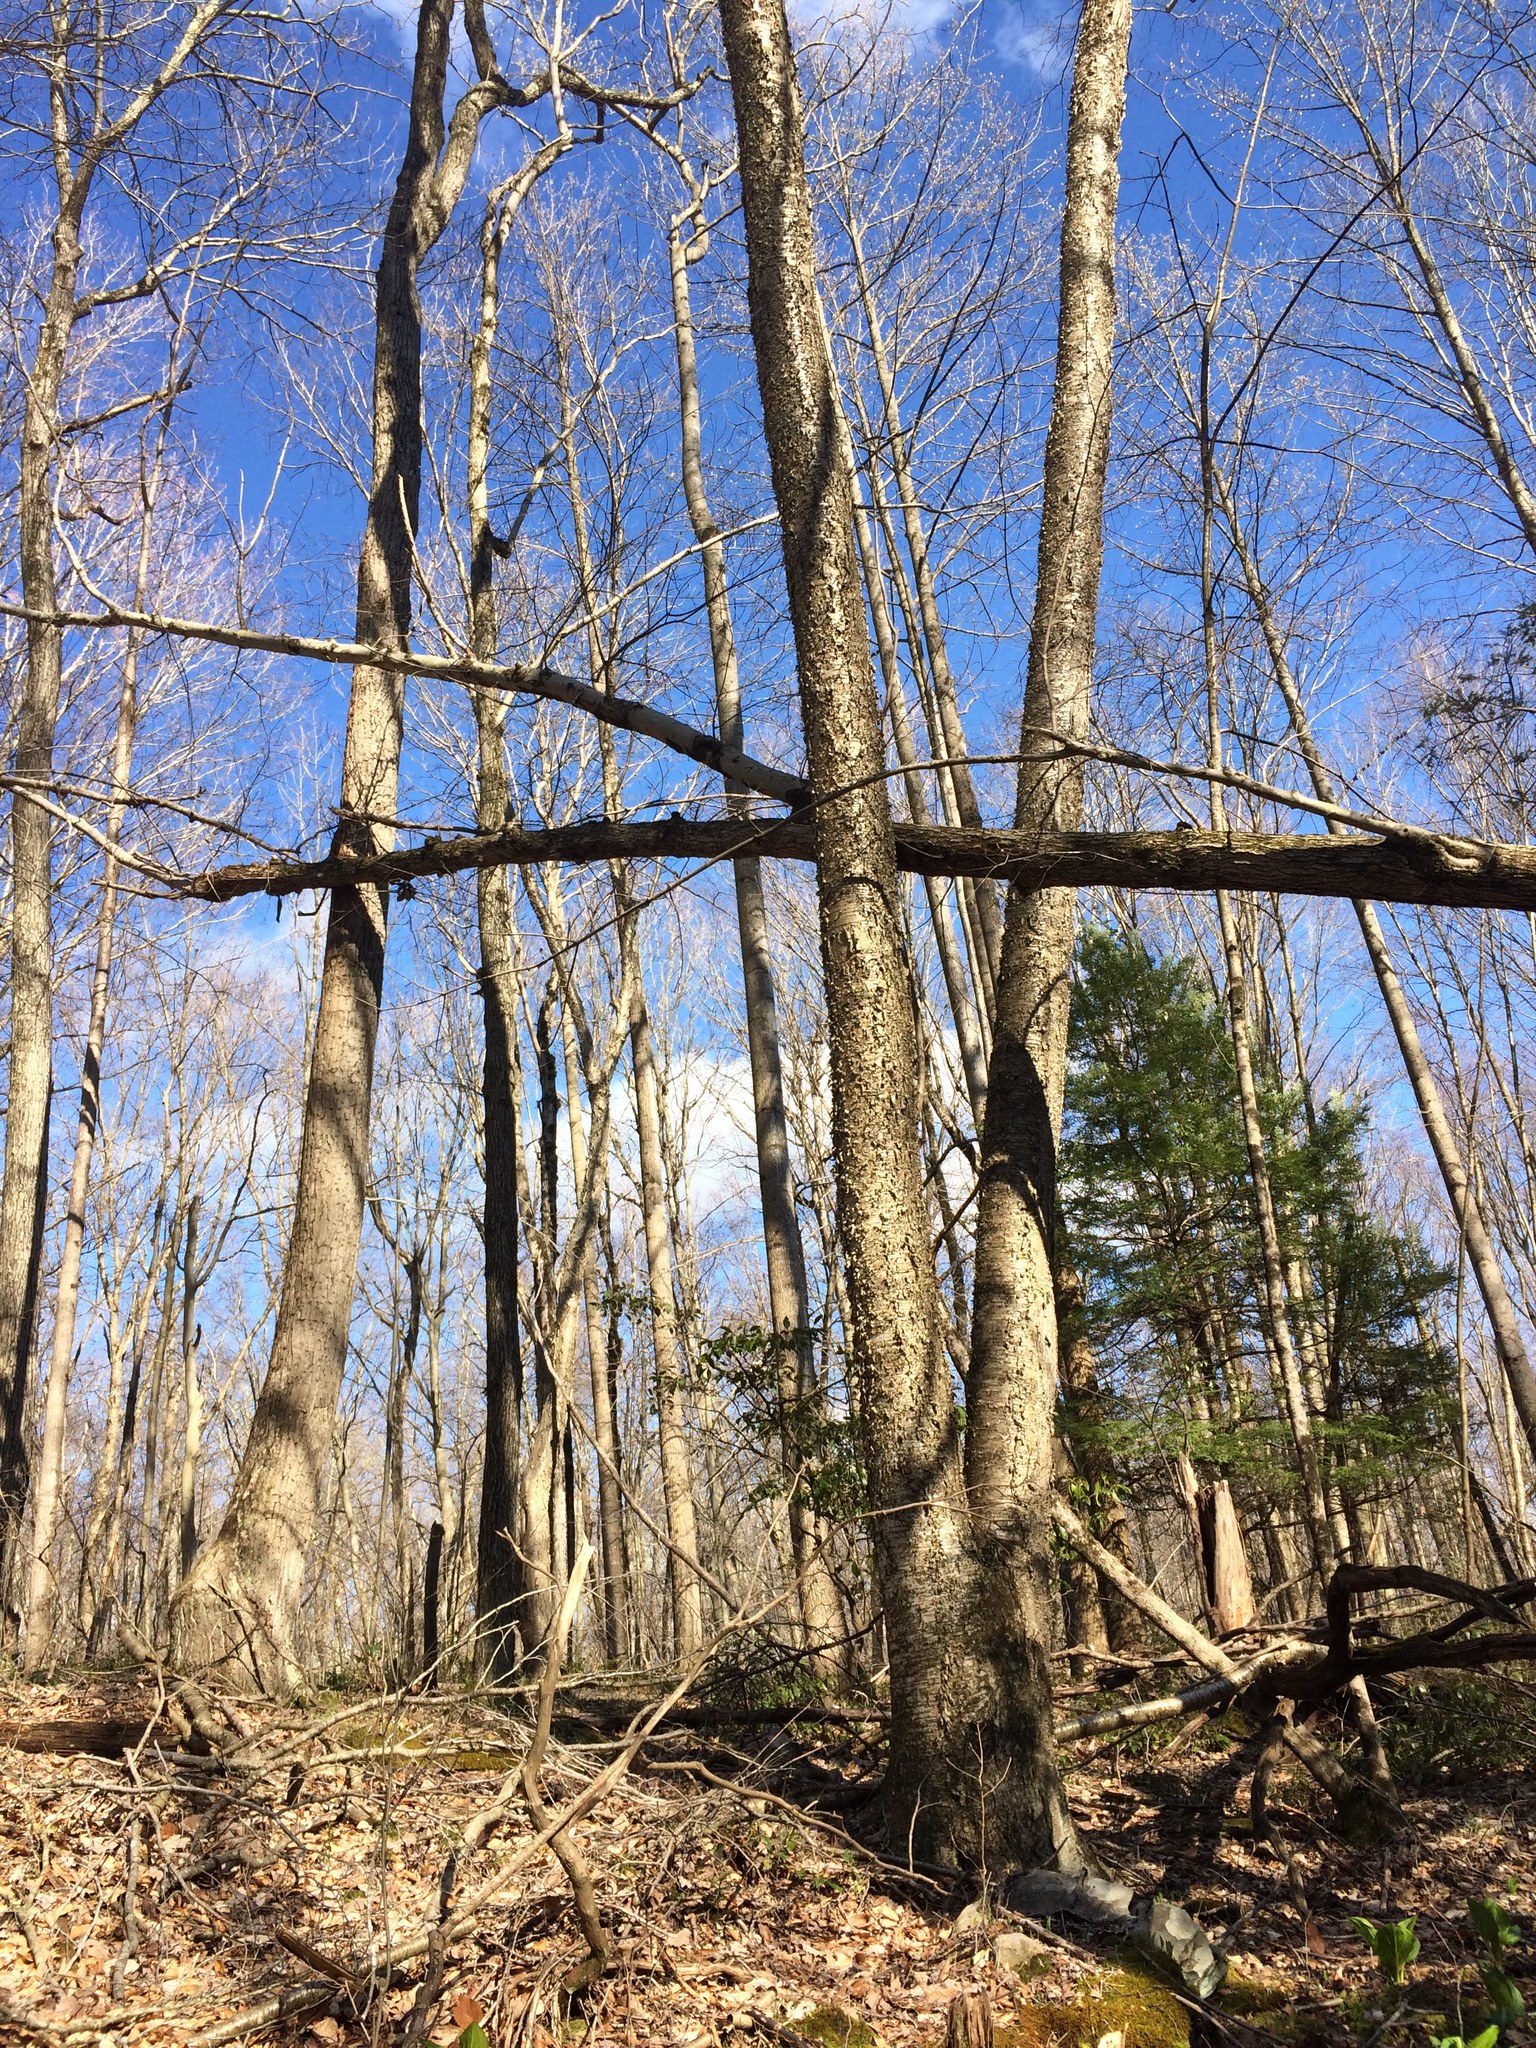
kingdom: Plantae
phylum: Tracheophyta
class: Magnoliopsida
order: Fagales
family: Betulaceae
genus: Betula
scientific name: Betula alleghaniensis
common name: Yellow birch
